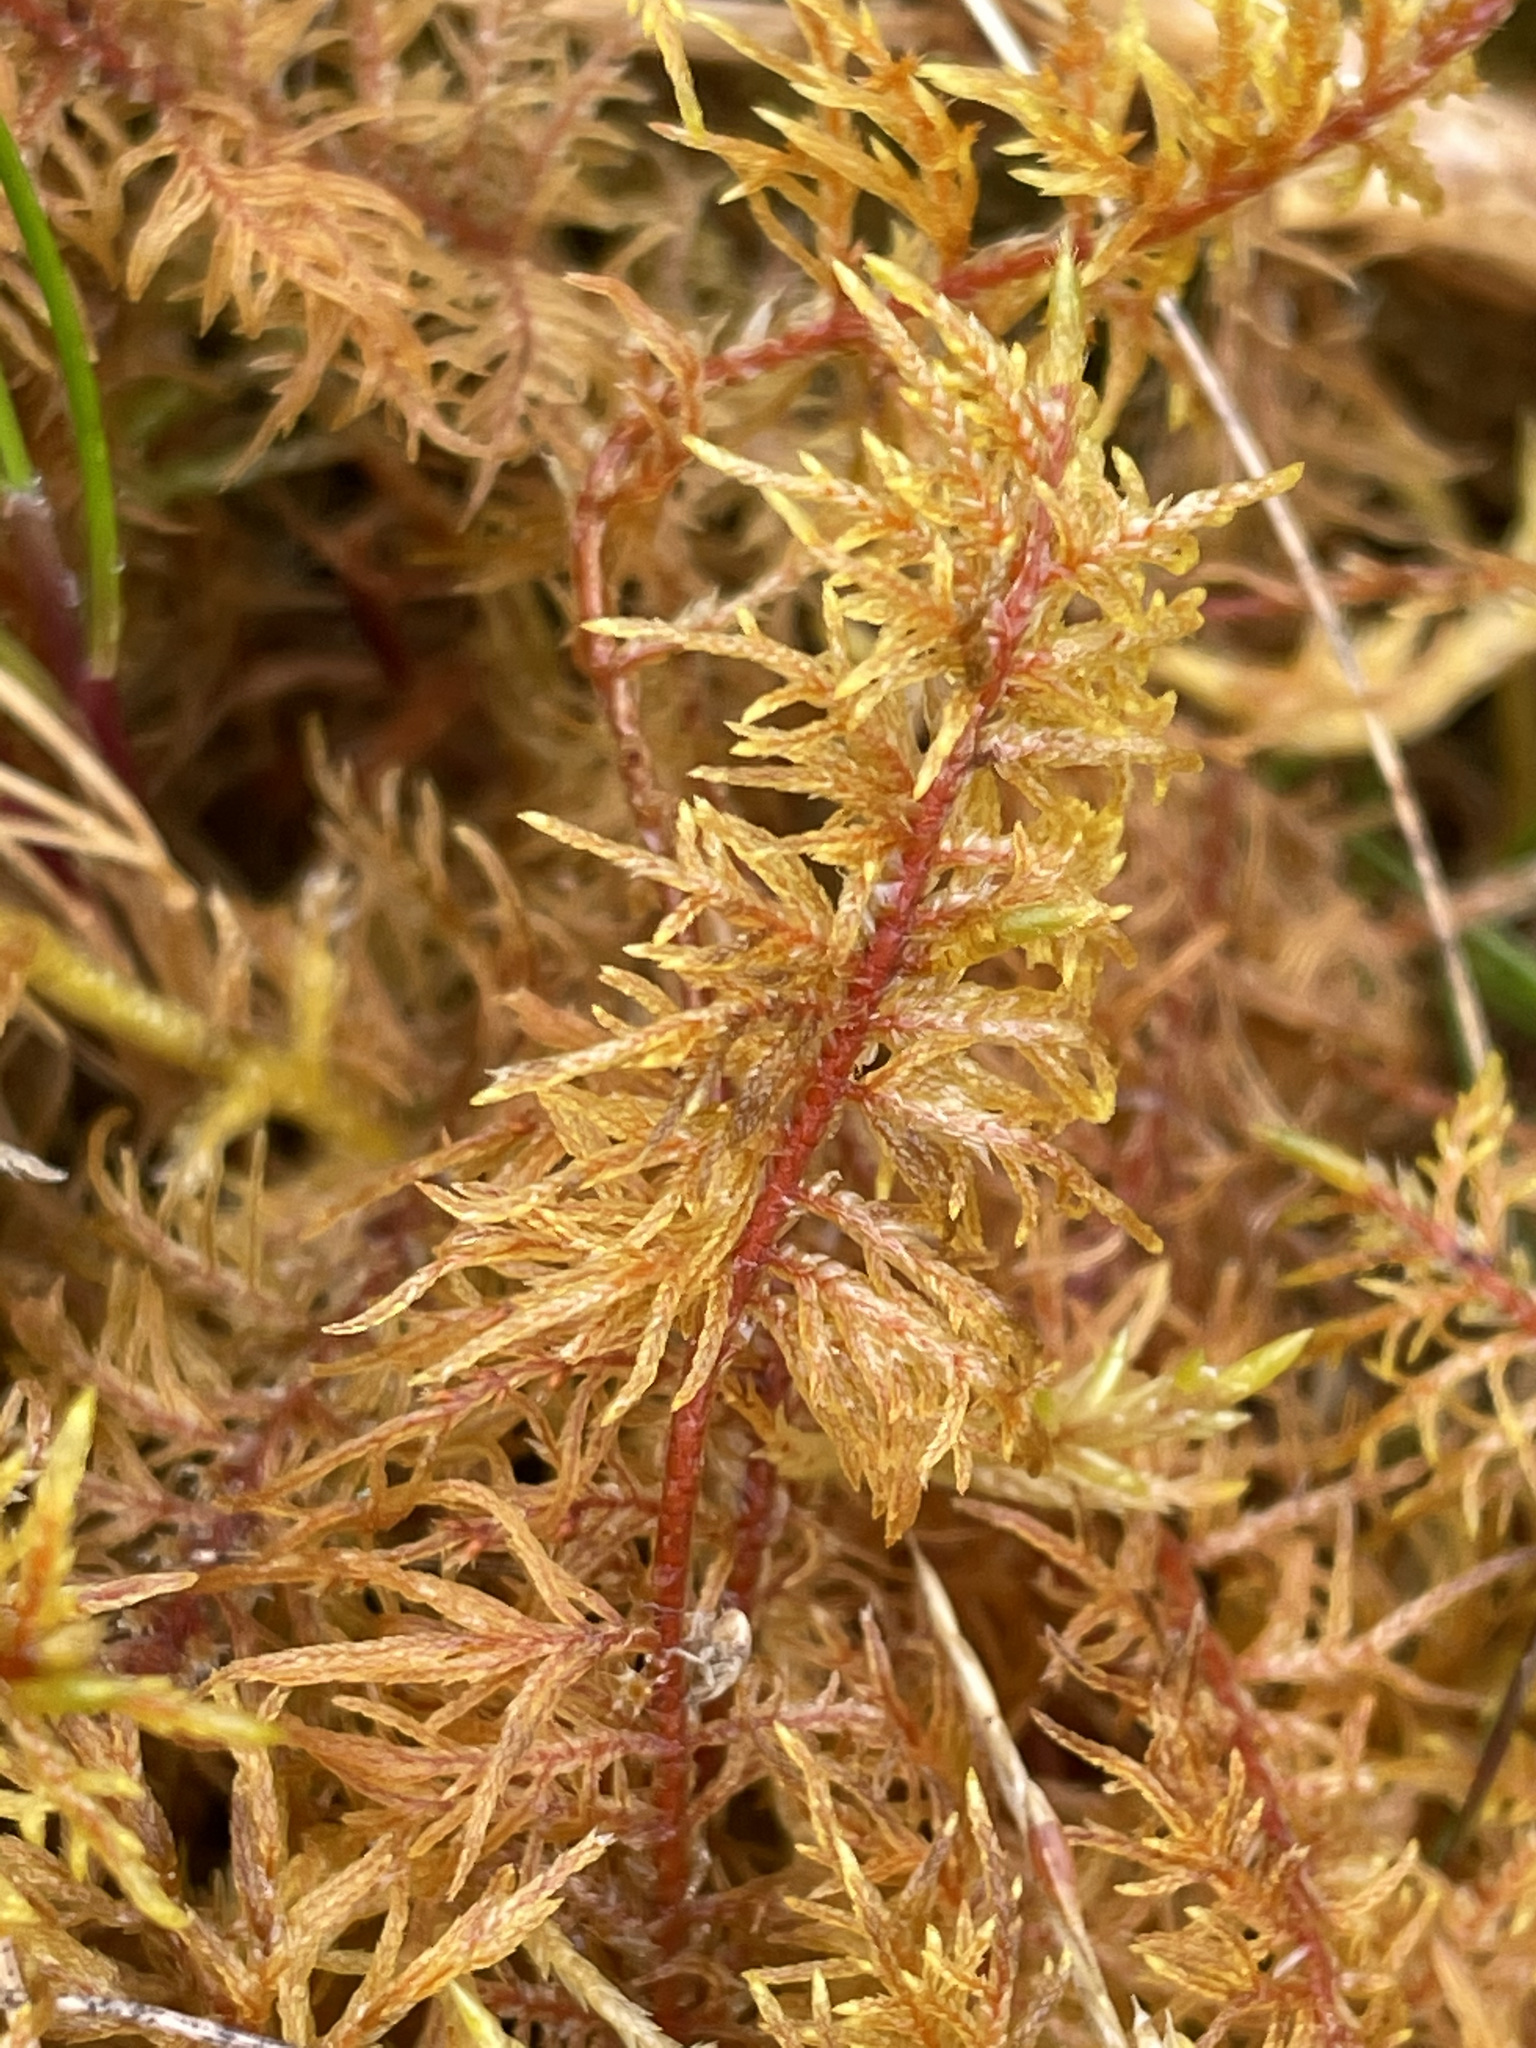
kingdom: Plantae
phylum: Bryophyta
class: Bryopsida
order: Hypnales
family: Hylocomiaceae
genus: Hylocomium
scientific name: Hylocomium splendens
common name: Stairstep moss
